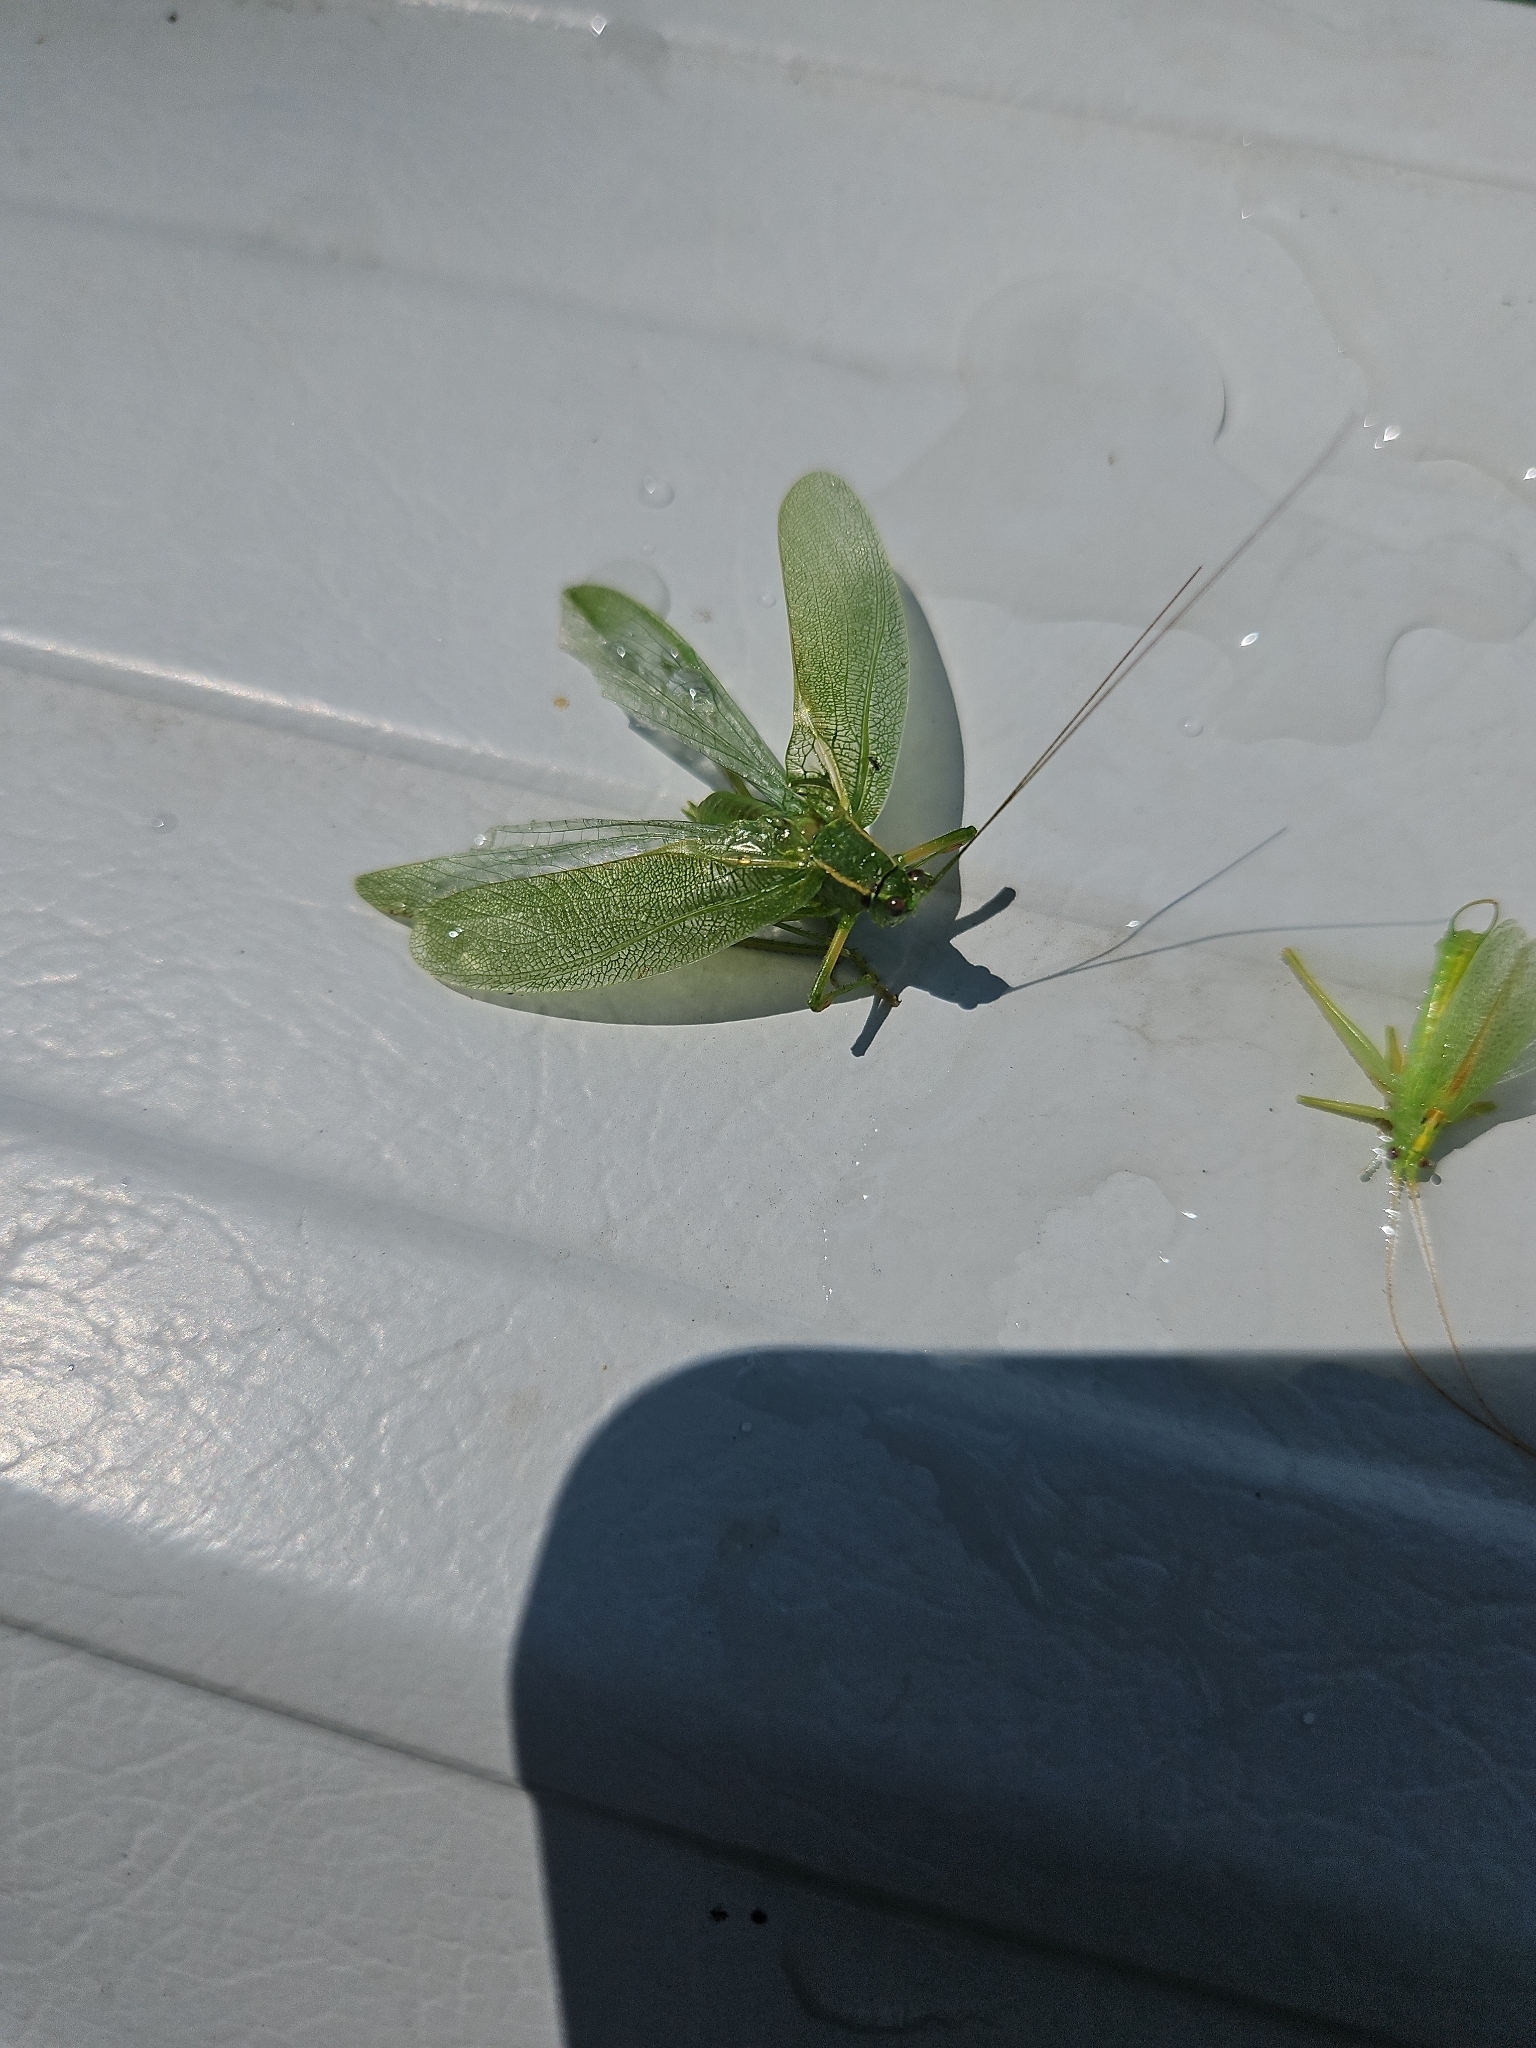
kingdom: Animalia
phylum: Arthropoda
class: Insecta
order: Orthoptera
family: Tettigoniidae
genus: Scudderia
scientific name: Scudderia septentrionalis
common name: Northern bush-katydid
